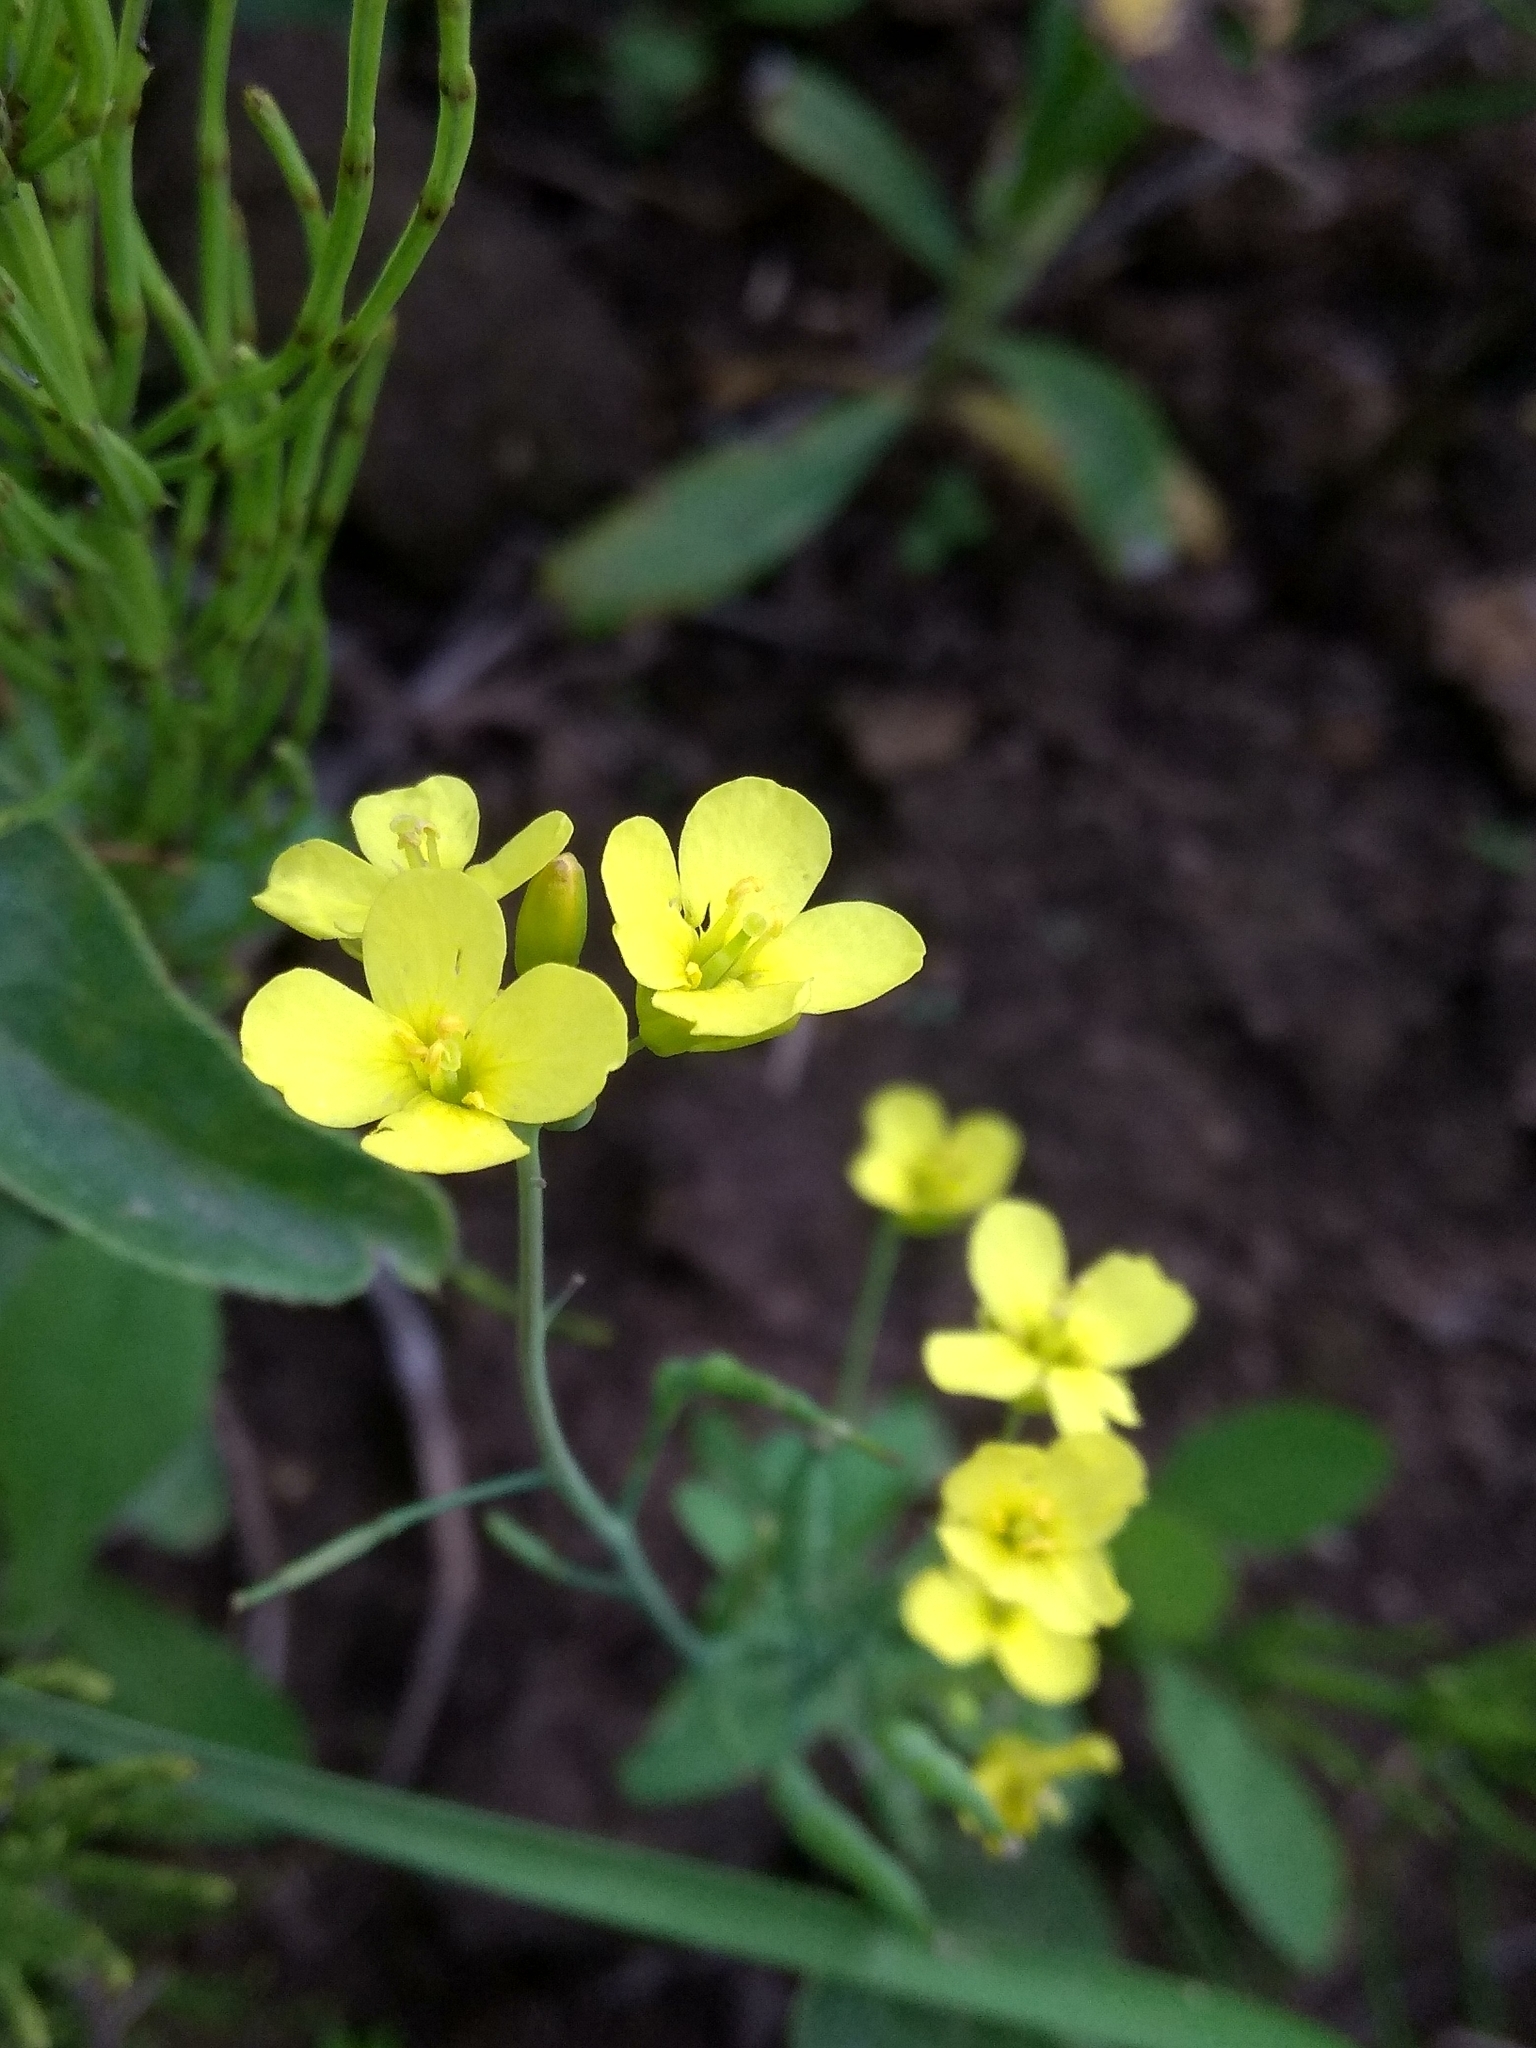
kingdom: Plantae
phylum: Tracheophyta
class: Magnoliopsida
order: Brassicales
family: Brassicaceae
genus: Brassica
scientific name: Brassica rapa
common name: Field mustard
